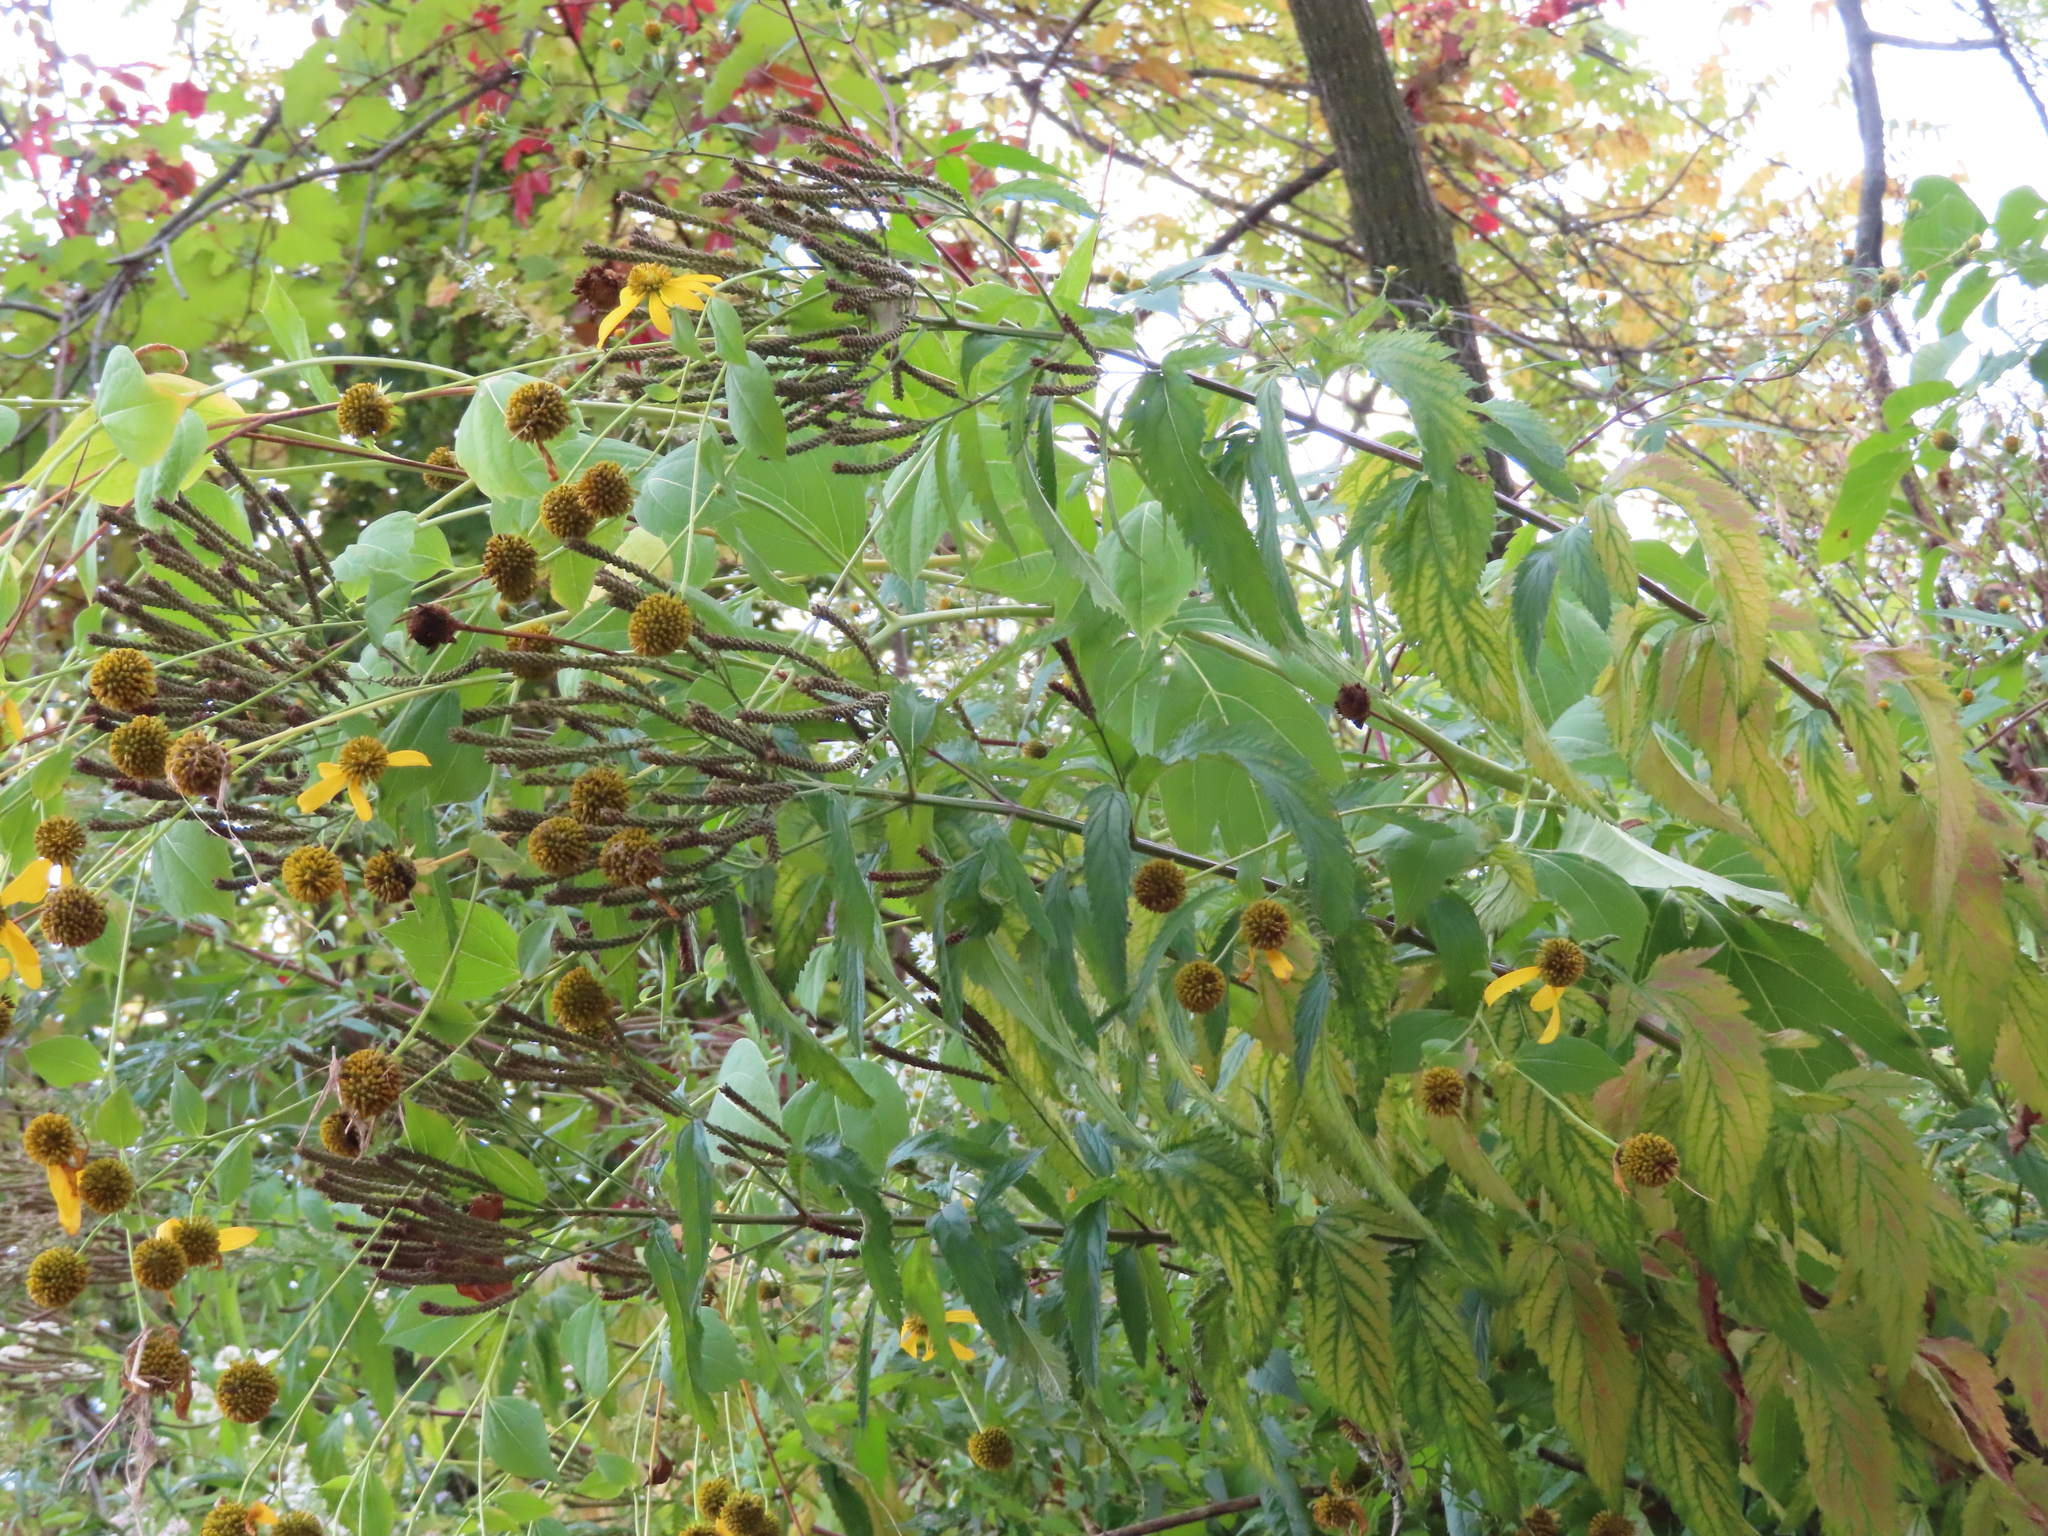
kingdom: Plantae
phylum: Tracheophyta
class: Magnoliopsida
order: Lamiales
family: Verbenaceae
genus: Verbena
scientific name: Verbena hastata
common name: American blue vervain
